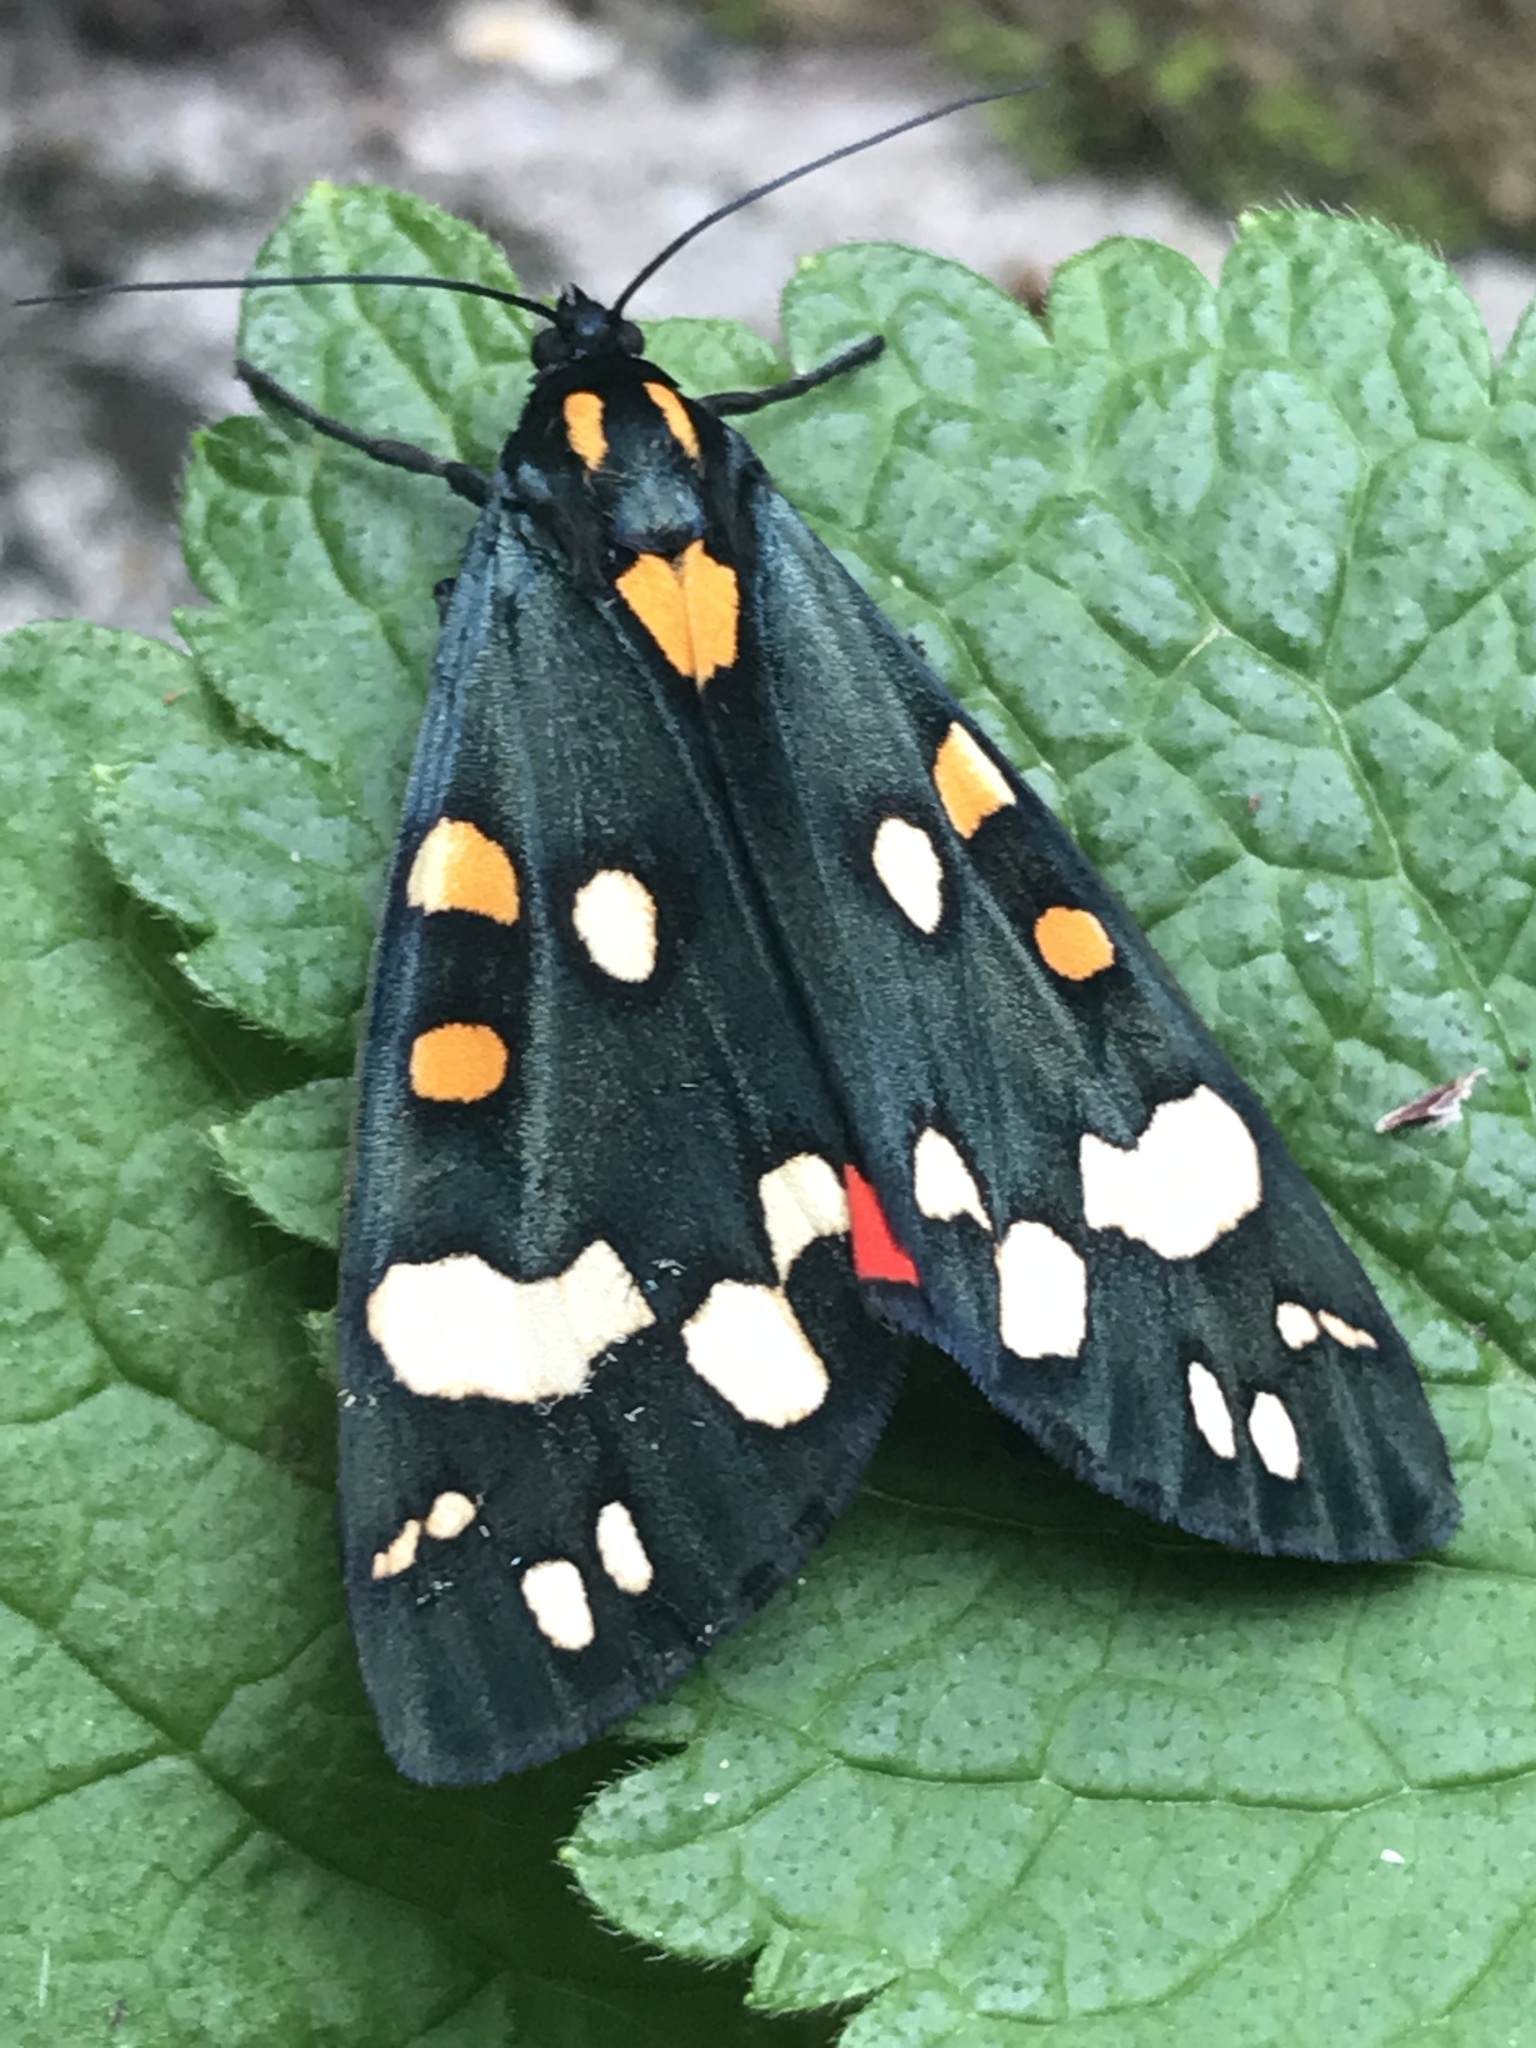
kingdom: Animalia
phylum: Arthropoda
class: Insecta
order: Lepidoptera
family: Erebidae
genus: Callimorpha
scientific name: Callimorpha dominula
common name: Scarlet tiger
